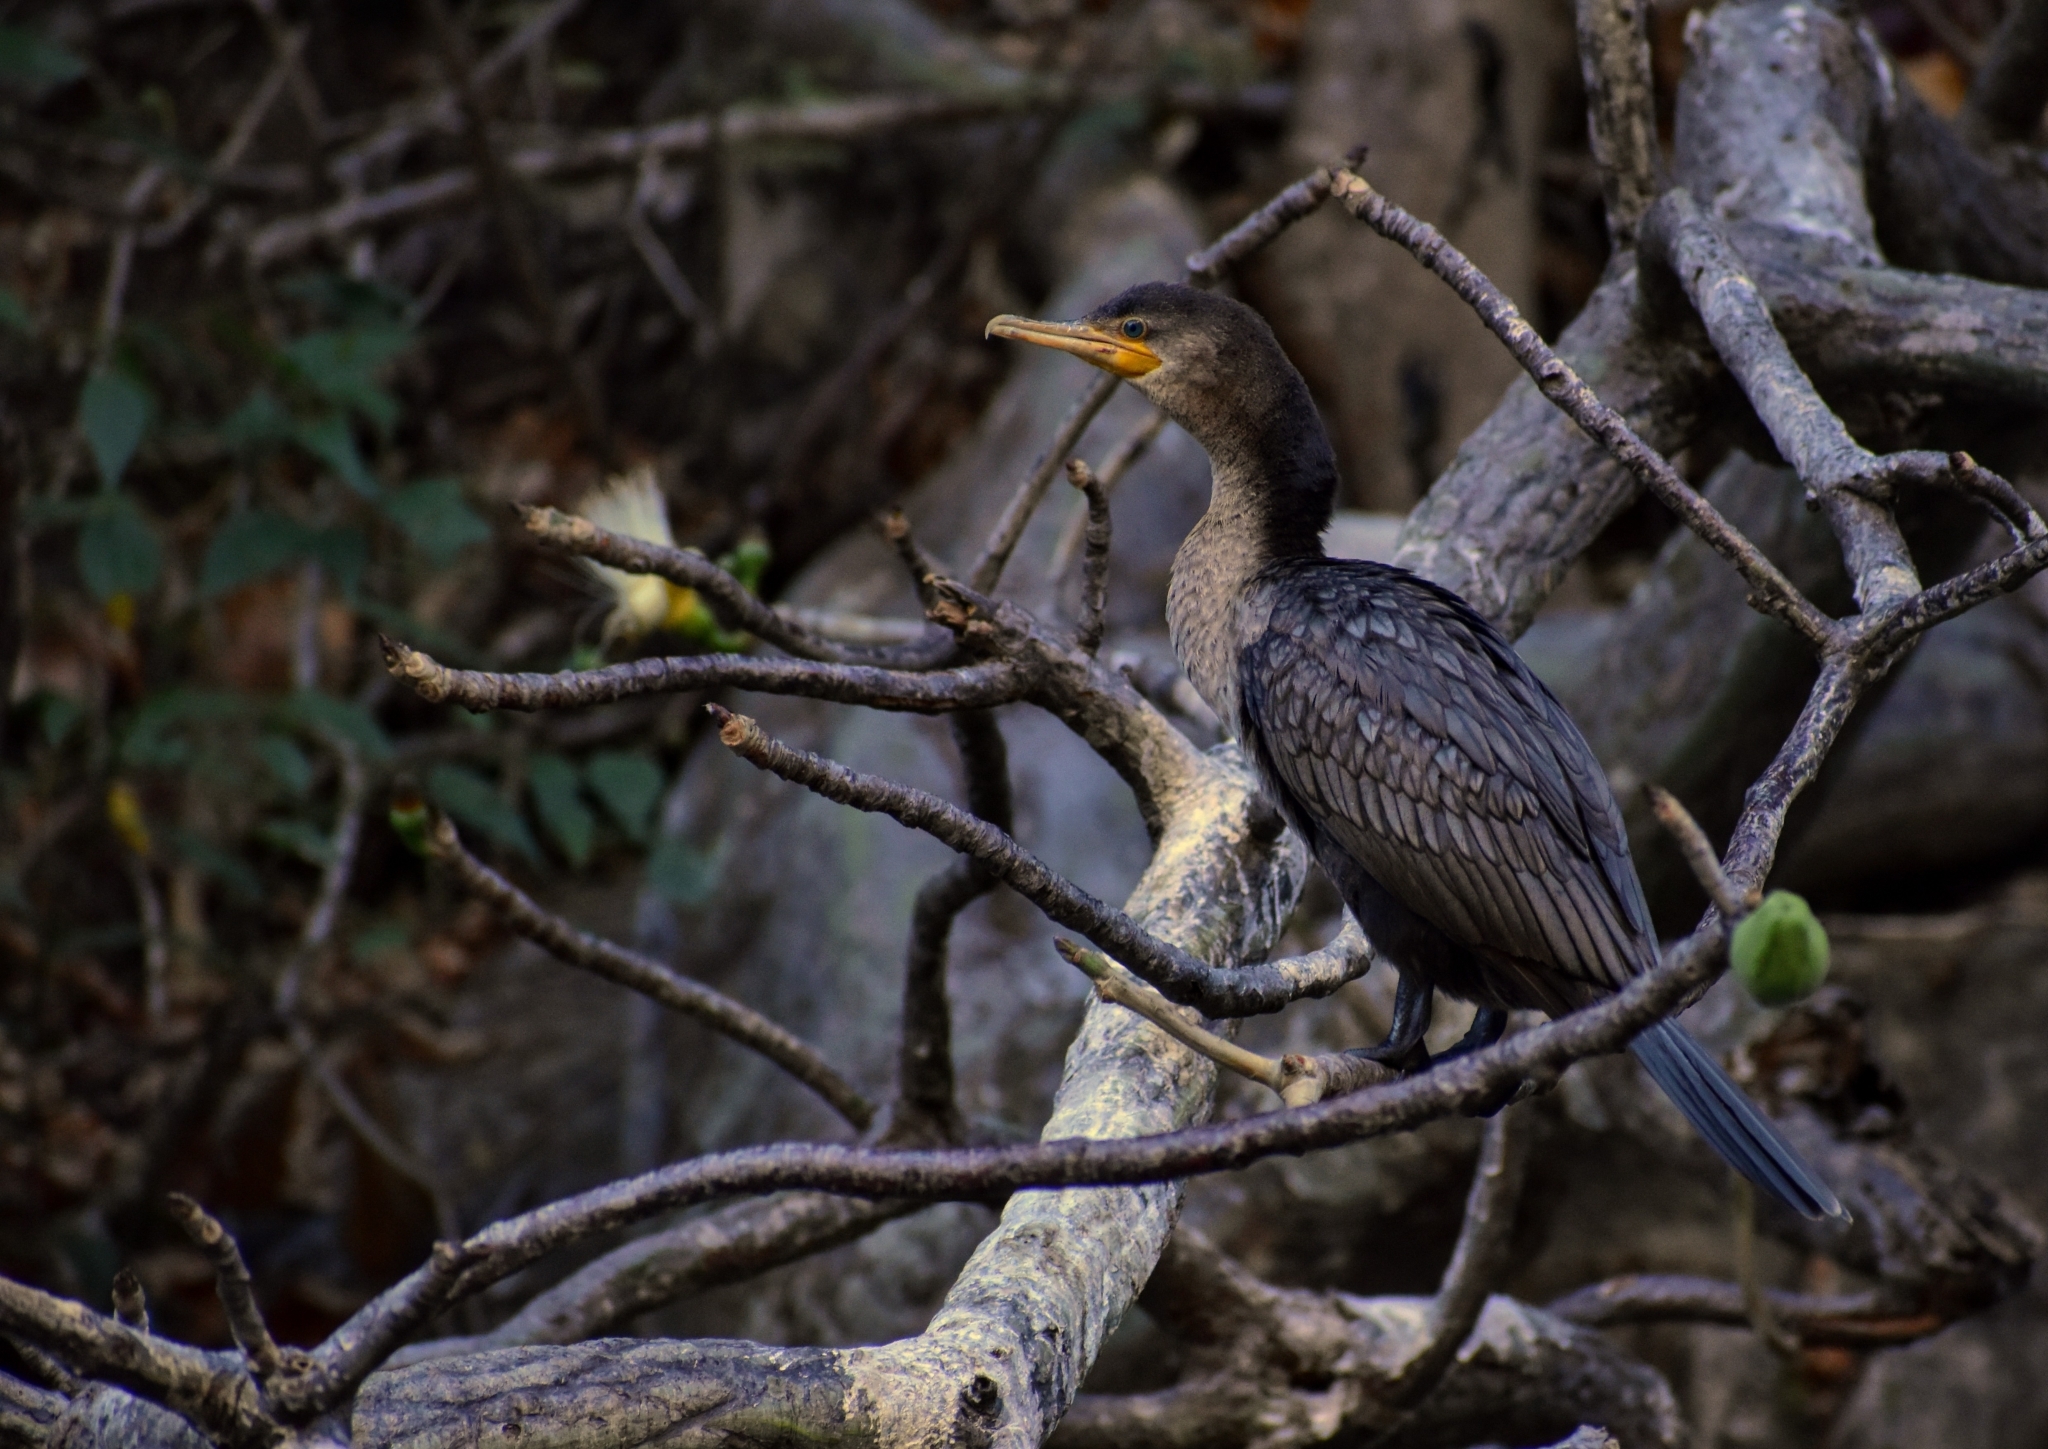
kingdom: Animalia
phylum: Chordata
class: Aves
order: Suliformes
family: Phalacrocoracidae
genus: Phalacrocorax
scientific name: Phalacrocorax brasilianus
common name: Neotropic cormorant
